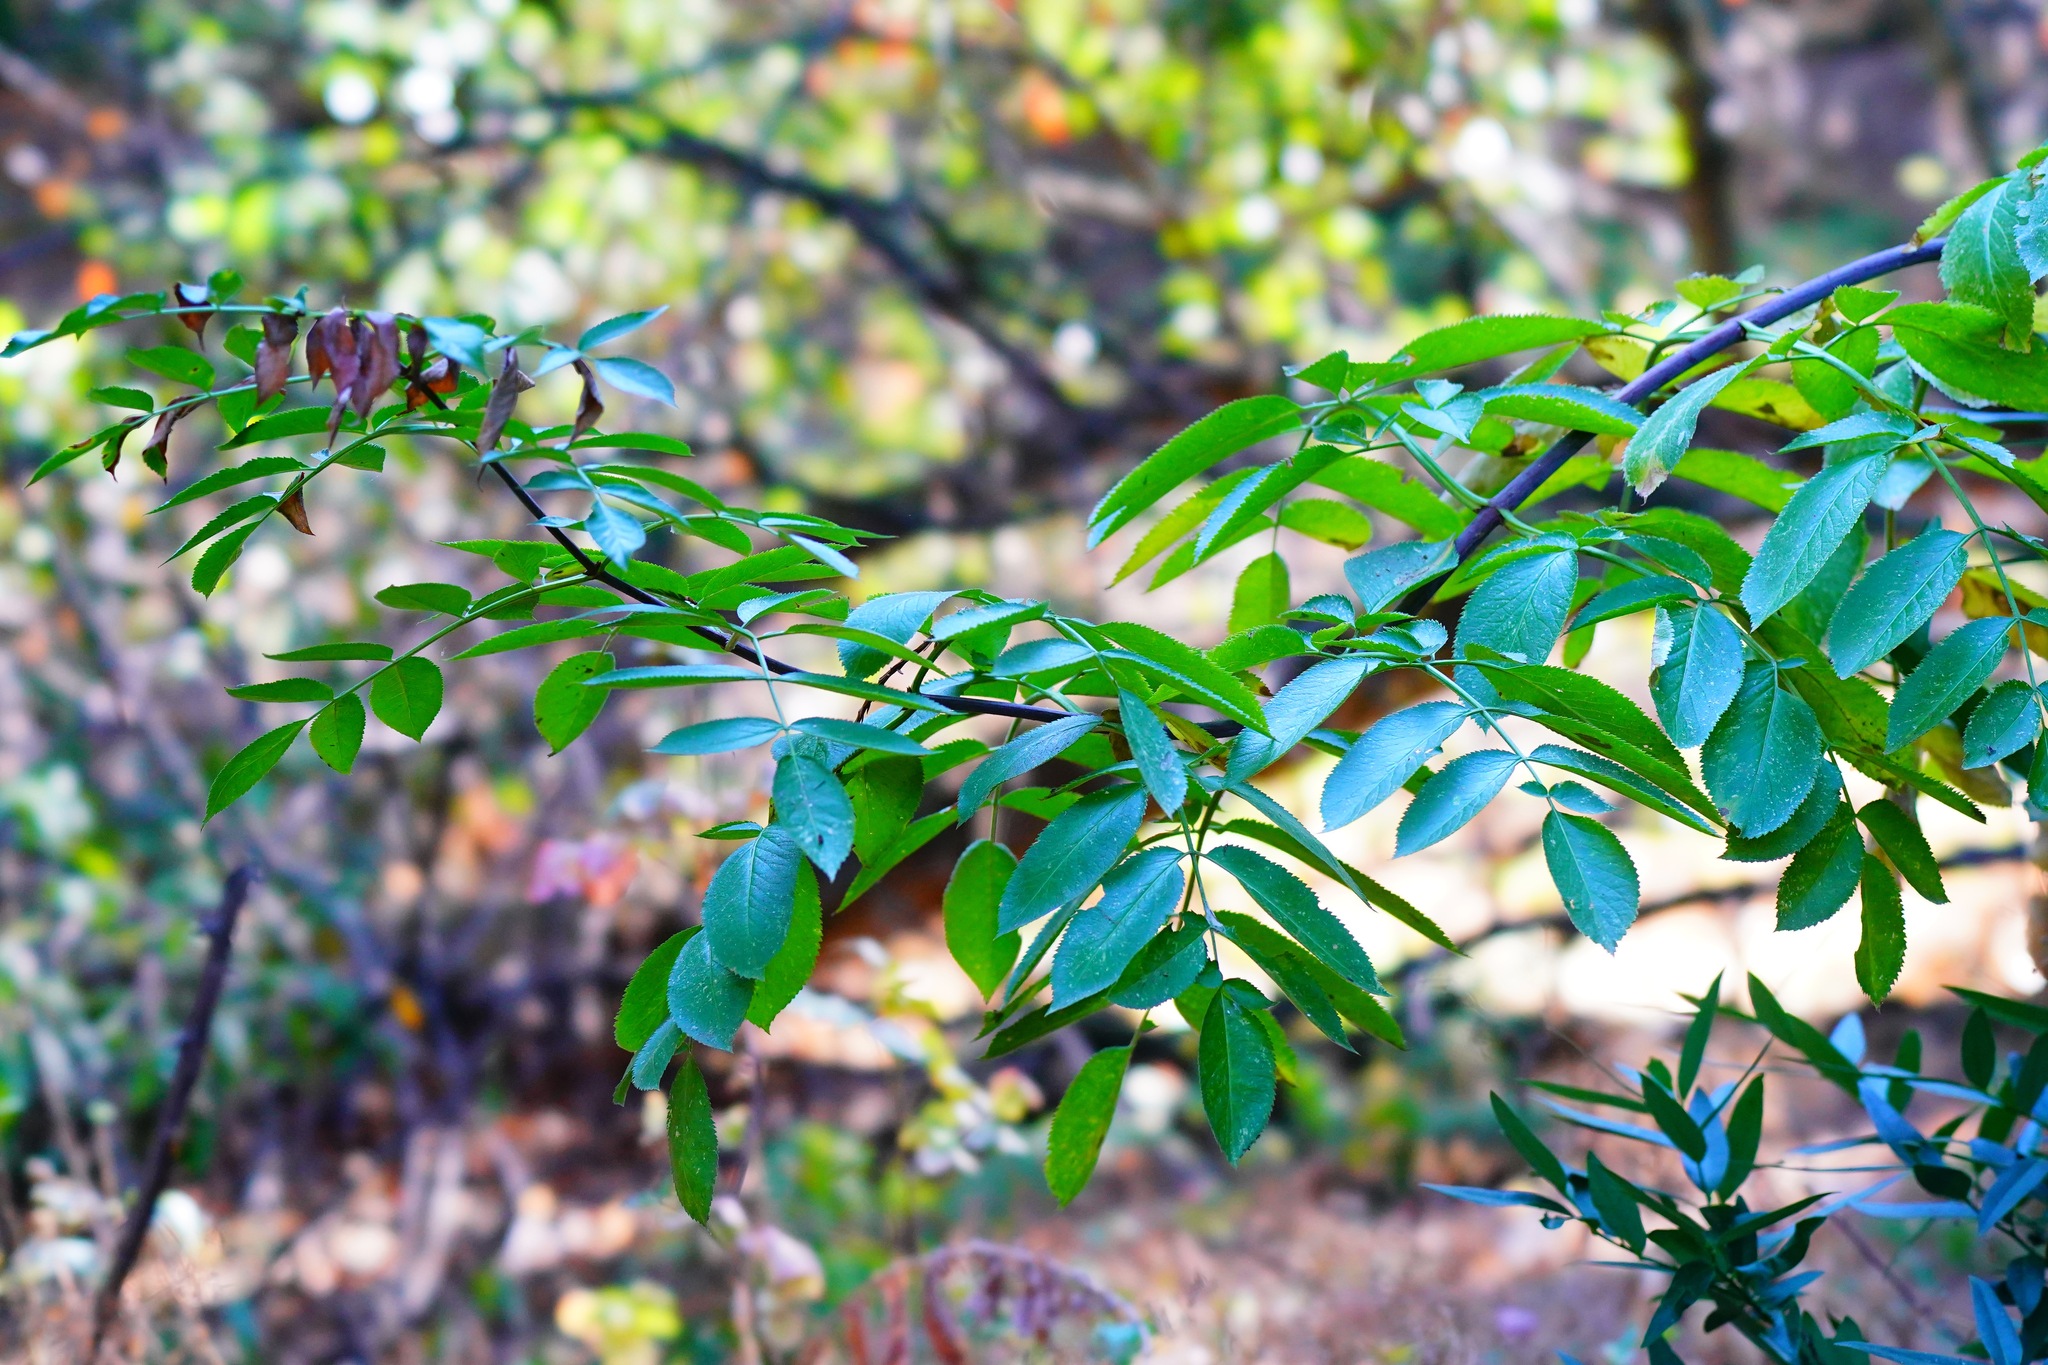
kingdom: Plantae
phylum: Tracheophyta
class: Magnoliopsida
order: Dipsacales
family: Viburnaceae
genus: Sambucus
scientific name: Sambucus cerulea
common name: Blue elder
